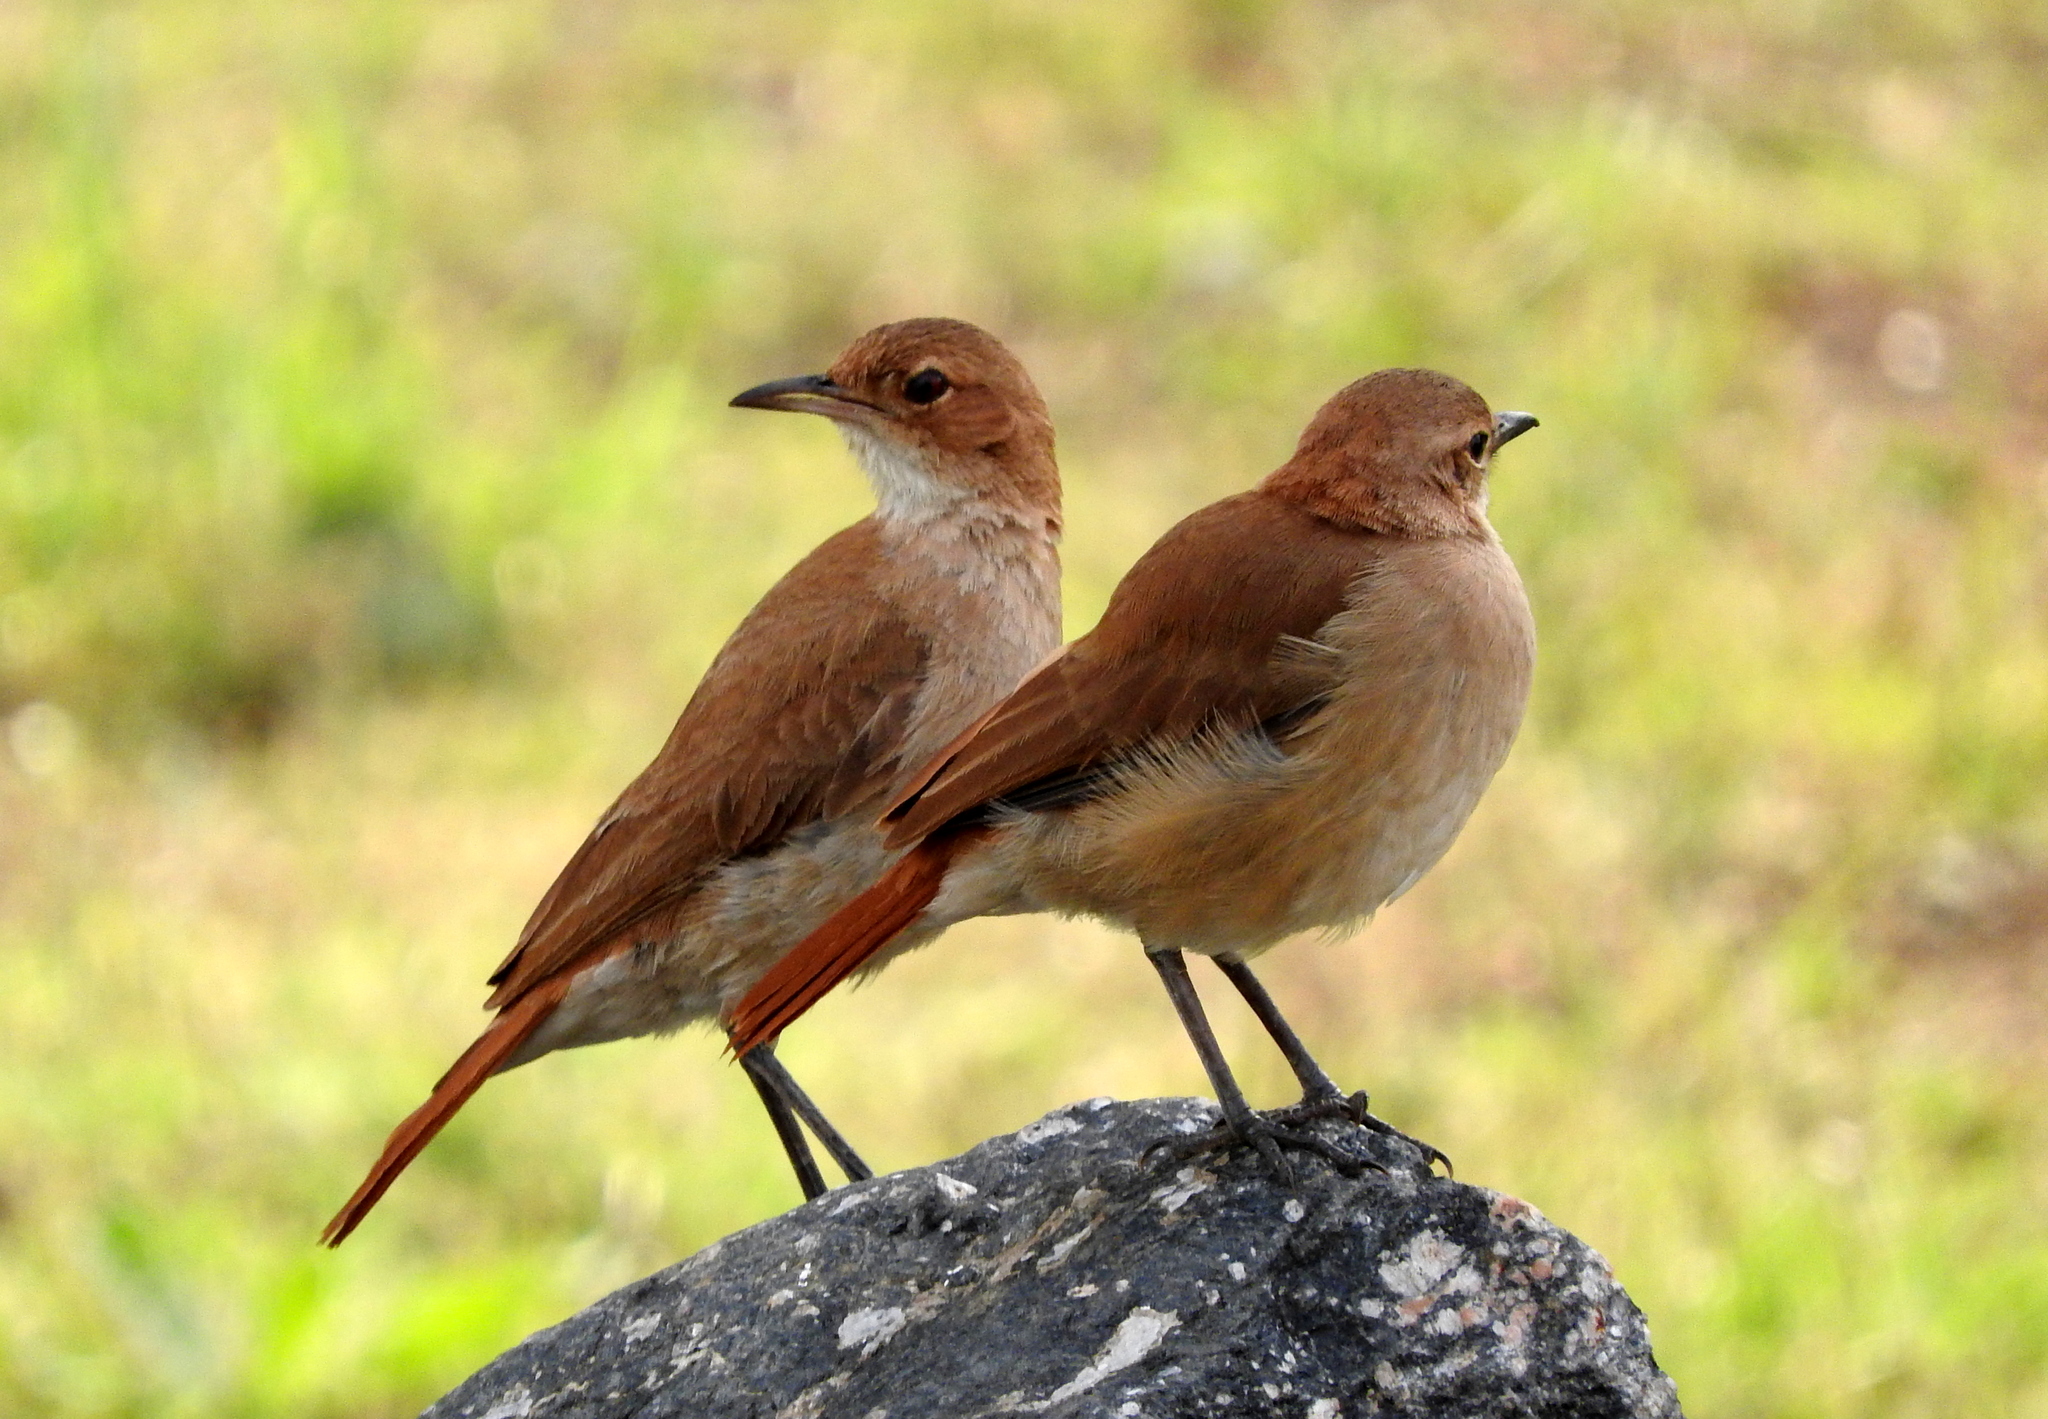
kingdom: Animalia
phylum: Chordata
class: Aves
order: Passeriformes
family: Furnariidae
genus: Furnarius
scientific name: Furnarius rufus
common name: Rufous hornero
